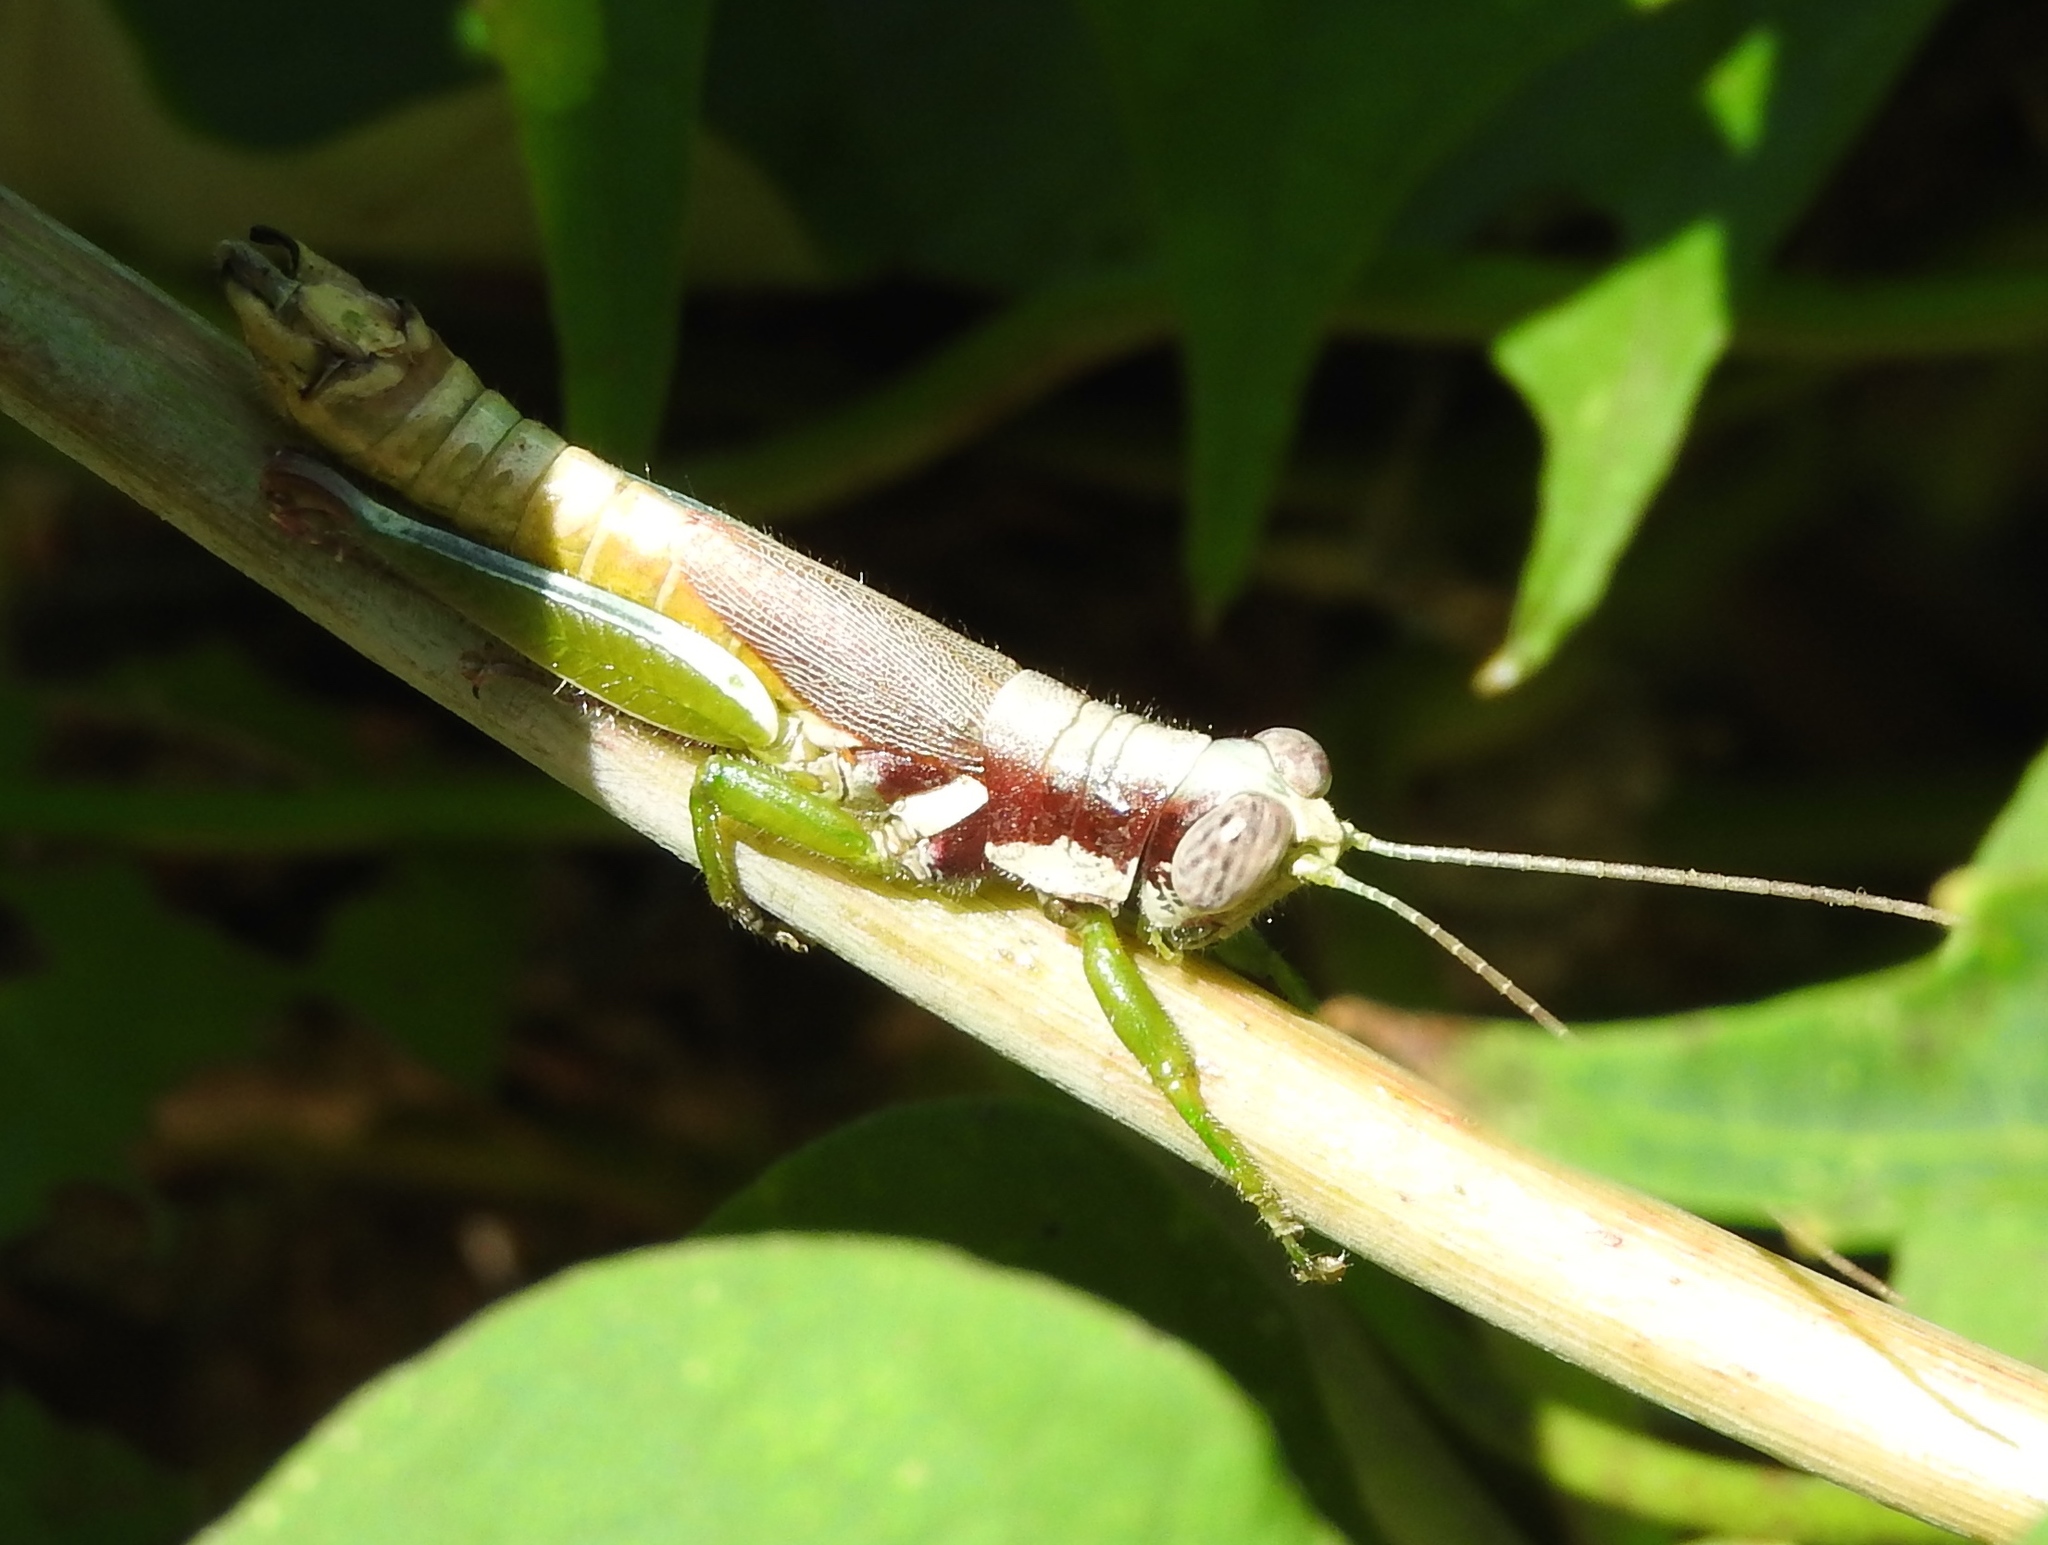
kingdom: Animalia
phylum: Arthropoda
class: Insecta
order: Orthoptera
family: Acrididae
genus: Proctolabus
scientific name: Proctolabus cerciatus
